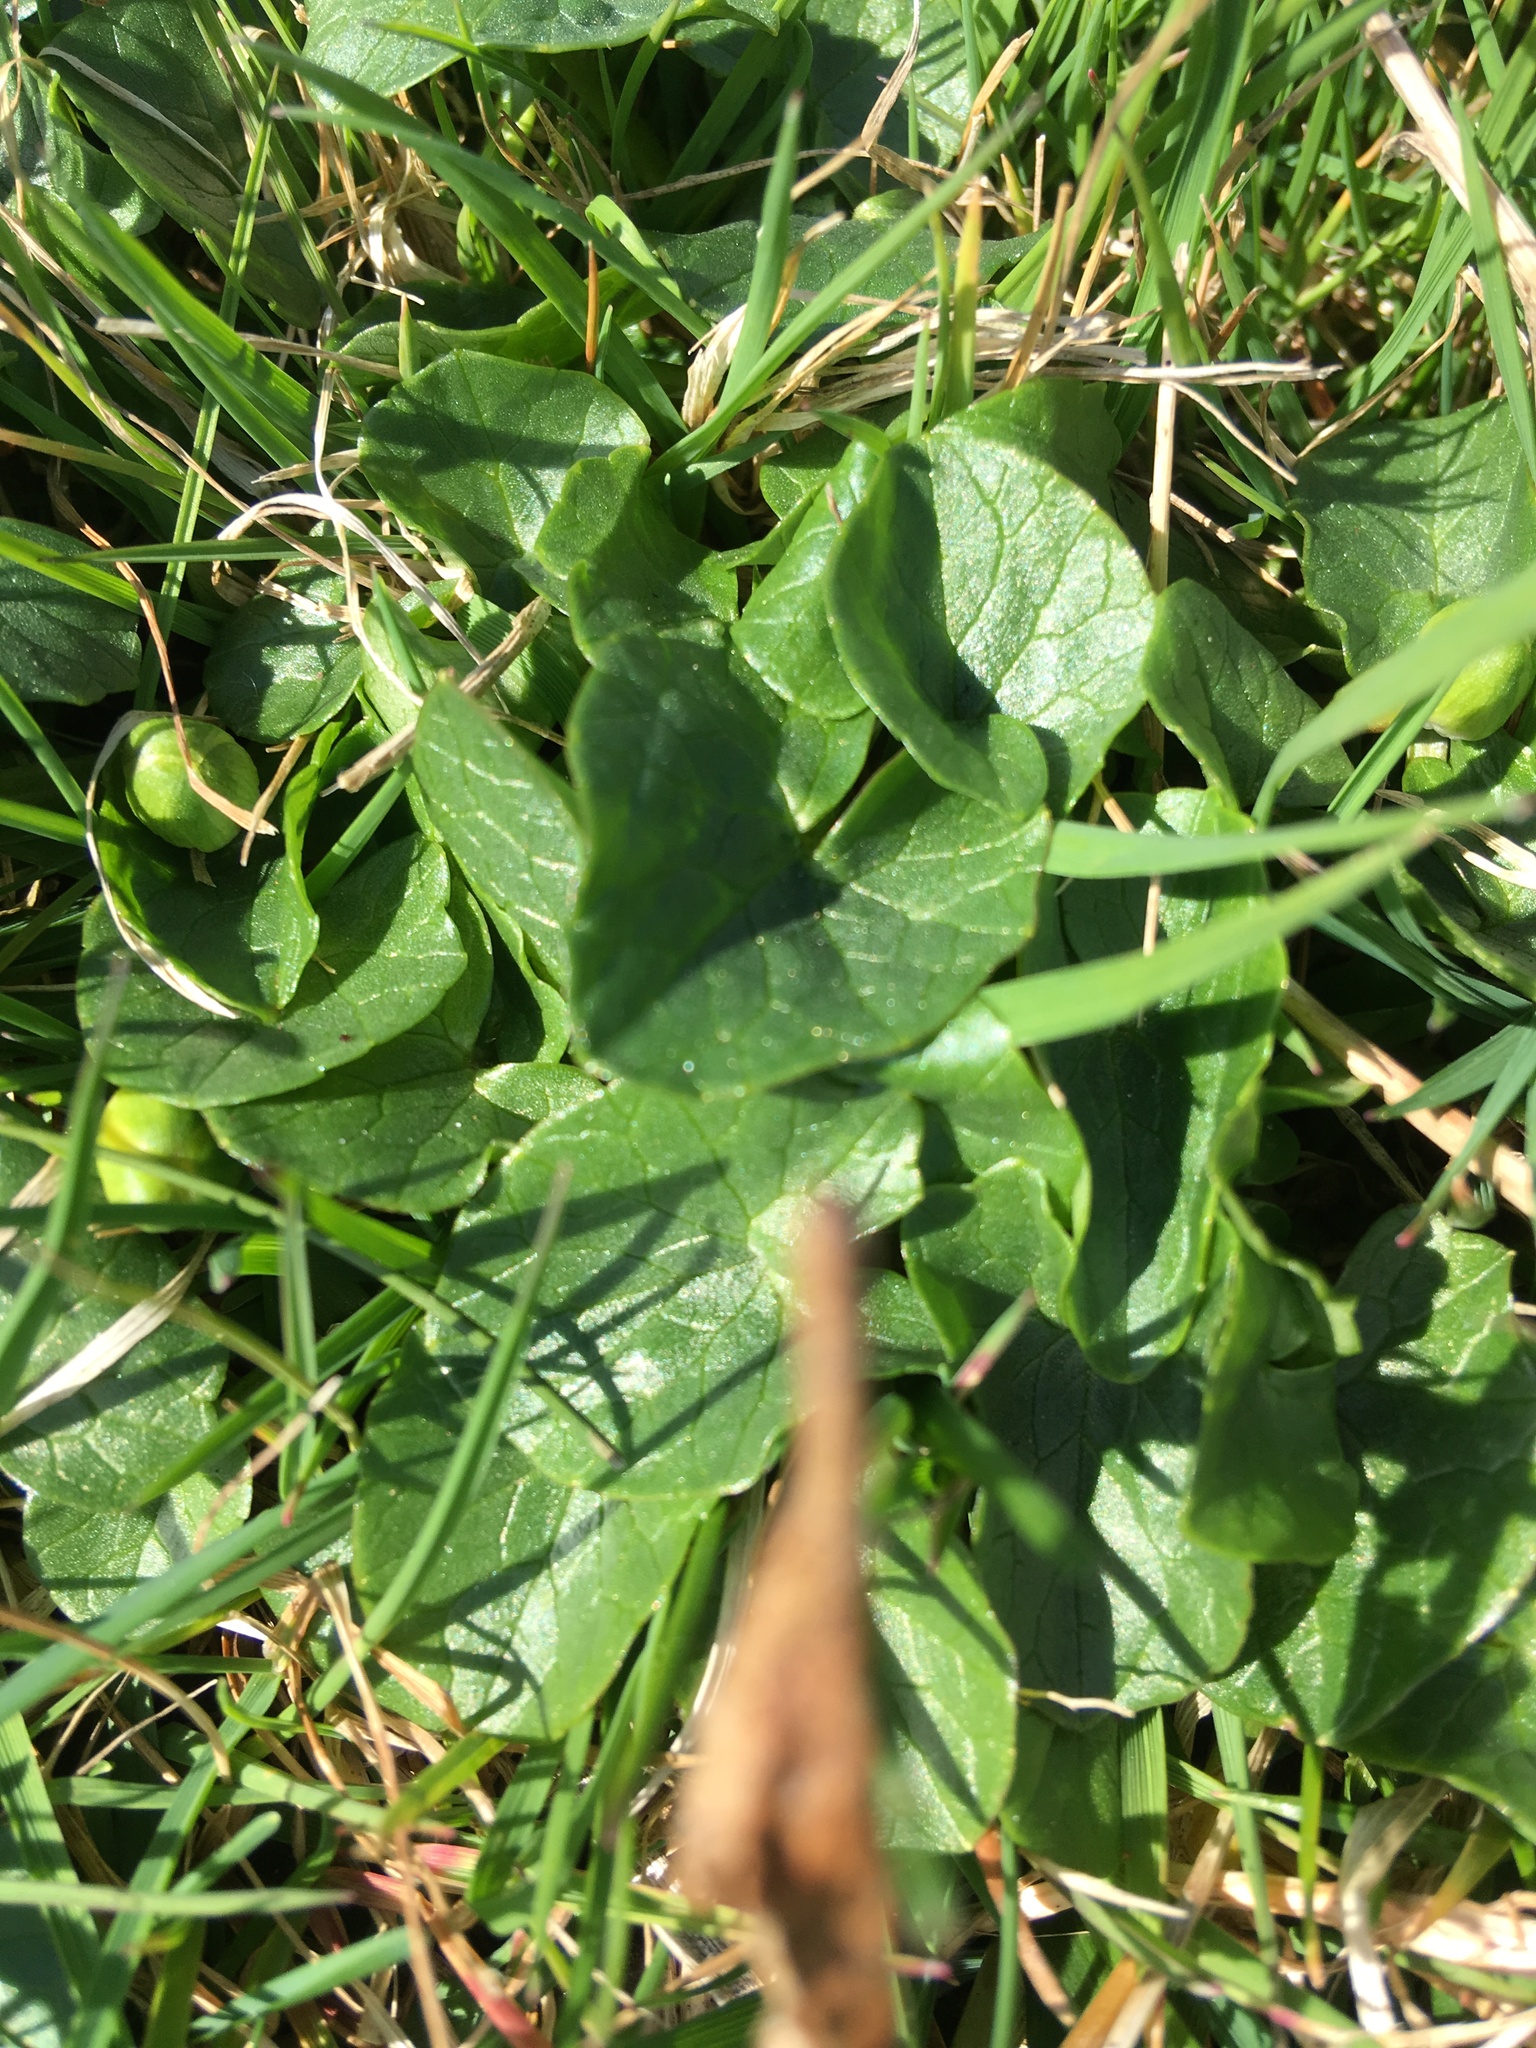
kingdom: Plantae
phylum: Tracheophyta
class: Magnoliopsida
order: Ranunculales
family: Ranunculaceae
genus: Ficaria
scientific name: Ficaria verna
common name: Lesser celandine
